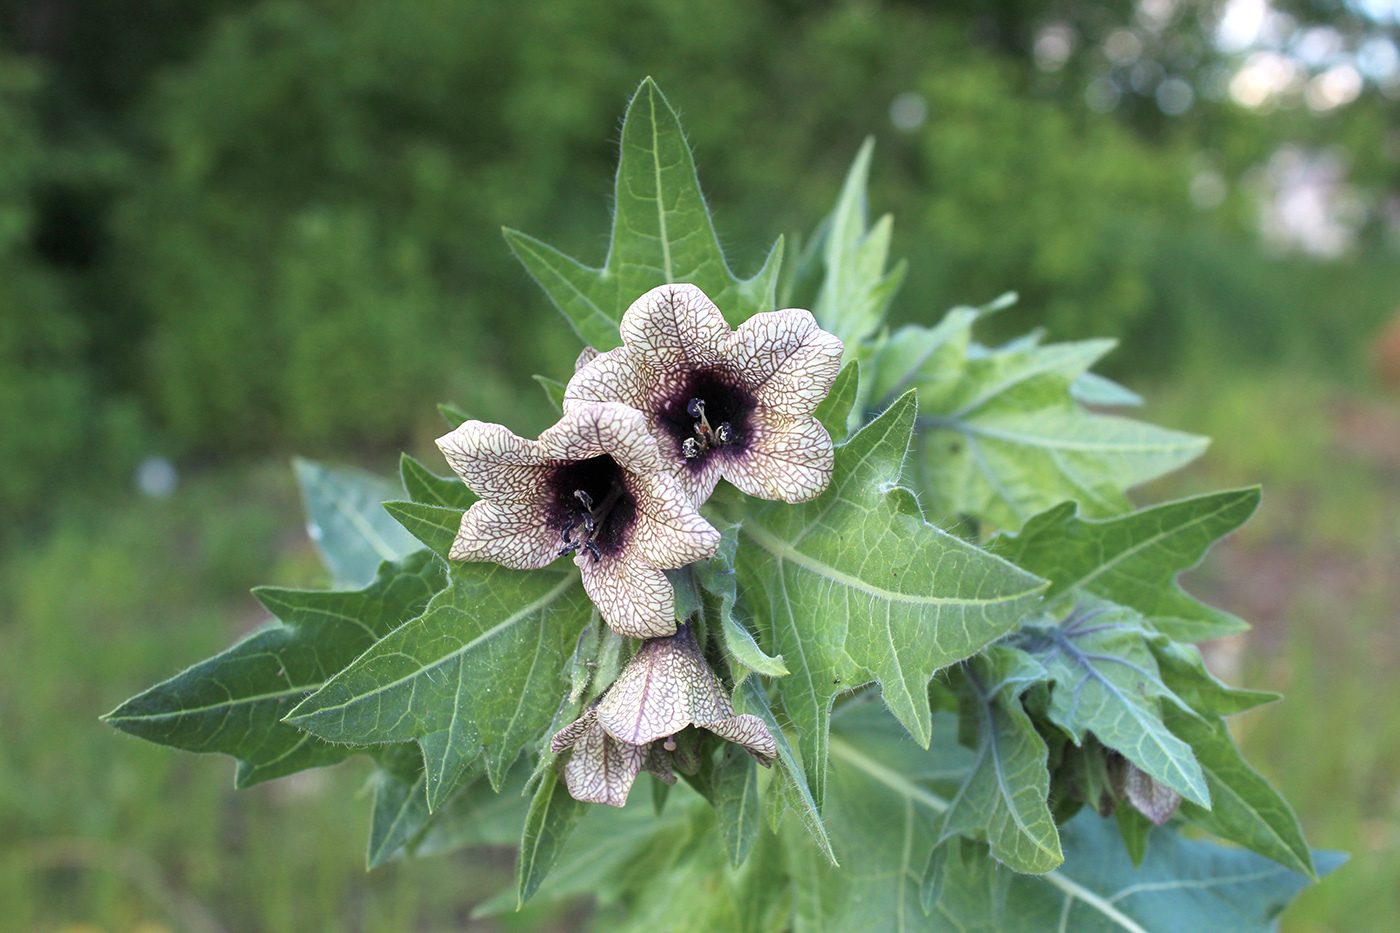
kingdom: Plantae
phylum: Tracheophyta
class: Magnoliopsida
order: Solanales
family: Solanaceae
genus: Hyoscyamus
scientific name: Hyoscyamus niger
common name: Henbane
